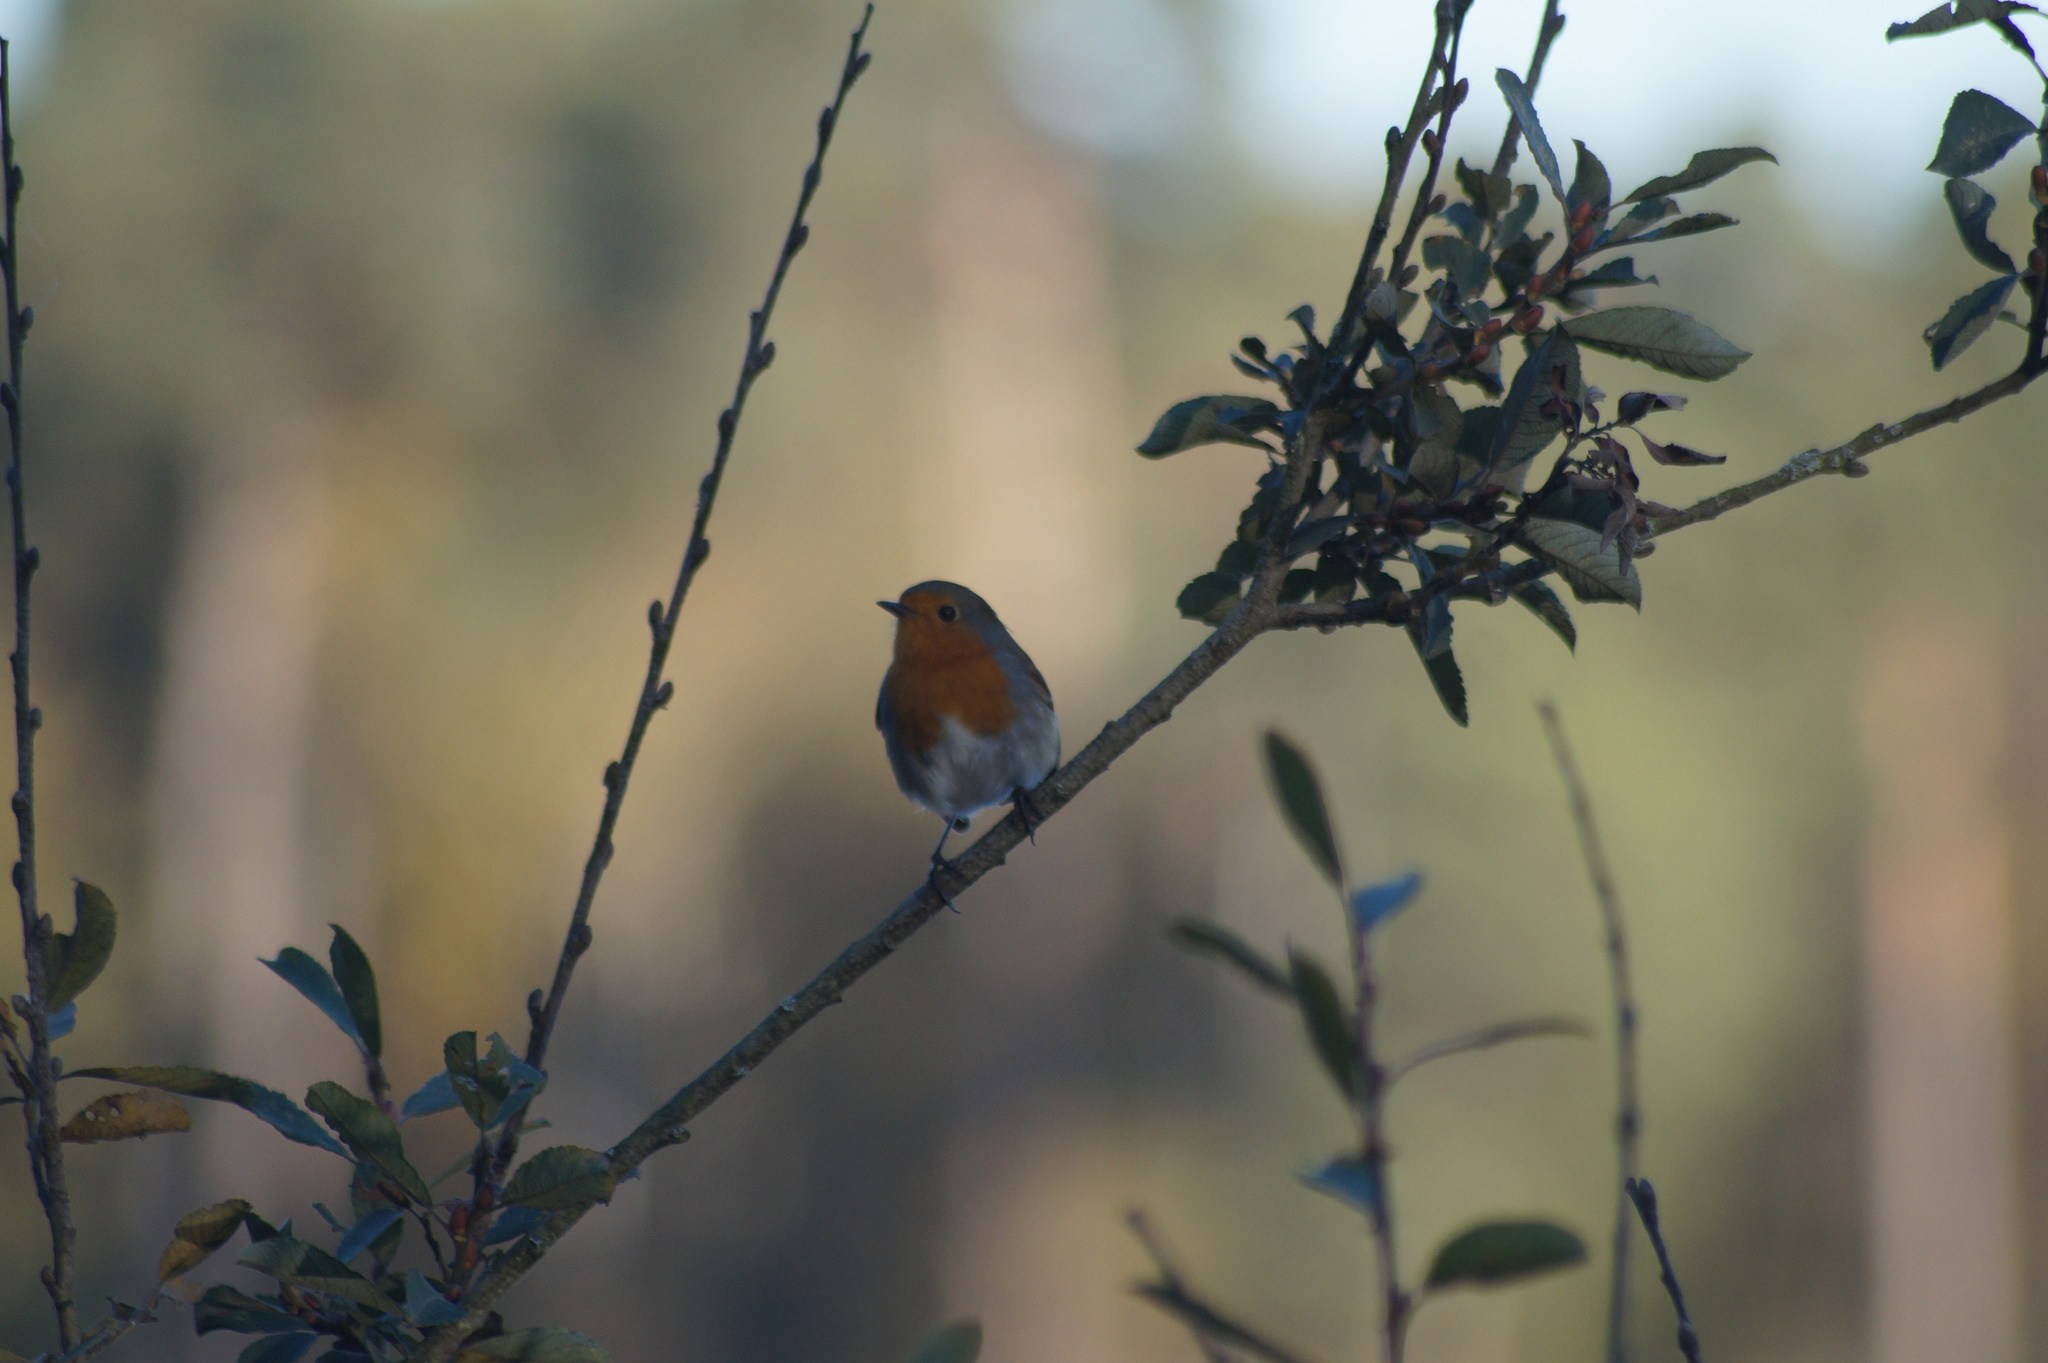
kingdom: Animalia
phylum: Chordata
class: Aves
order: Passeriformes
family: Muscicapidae
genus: Erithacus
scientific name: Erithacus rubecula
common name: European robin
